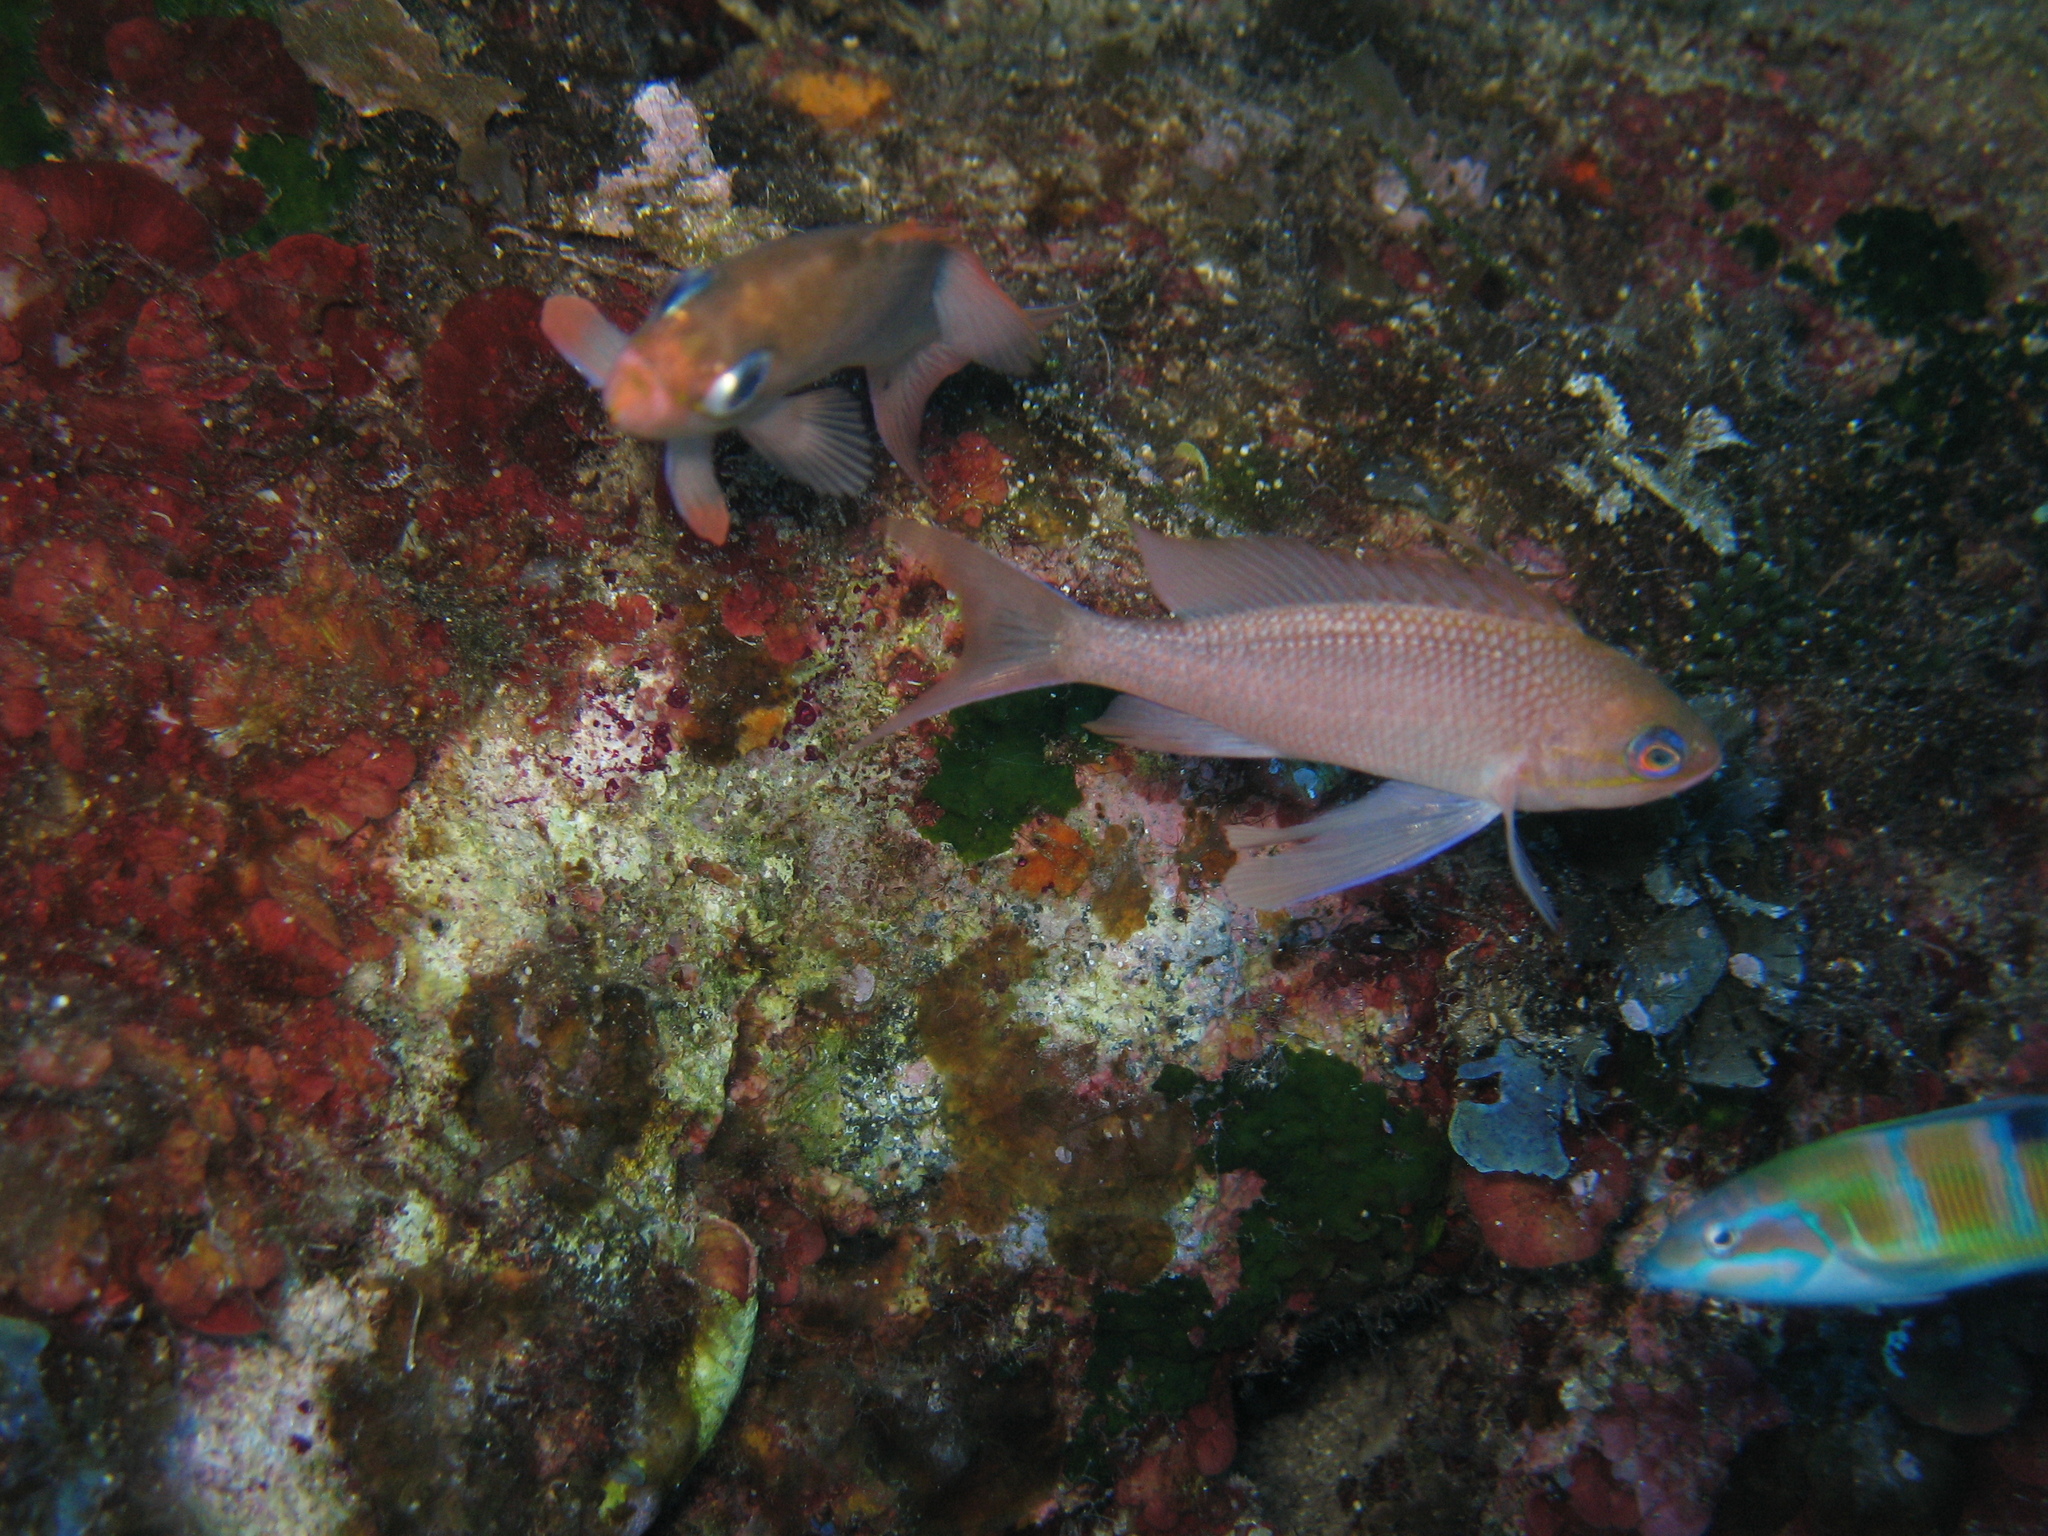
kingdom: Animalia
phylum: Chordata
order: Perciformes
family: Serranidae
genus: Anthias
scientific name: Anthias anthias
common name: Swallowtail seaperch
